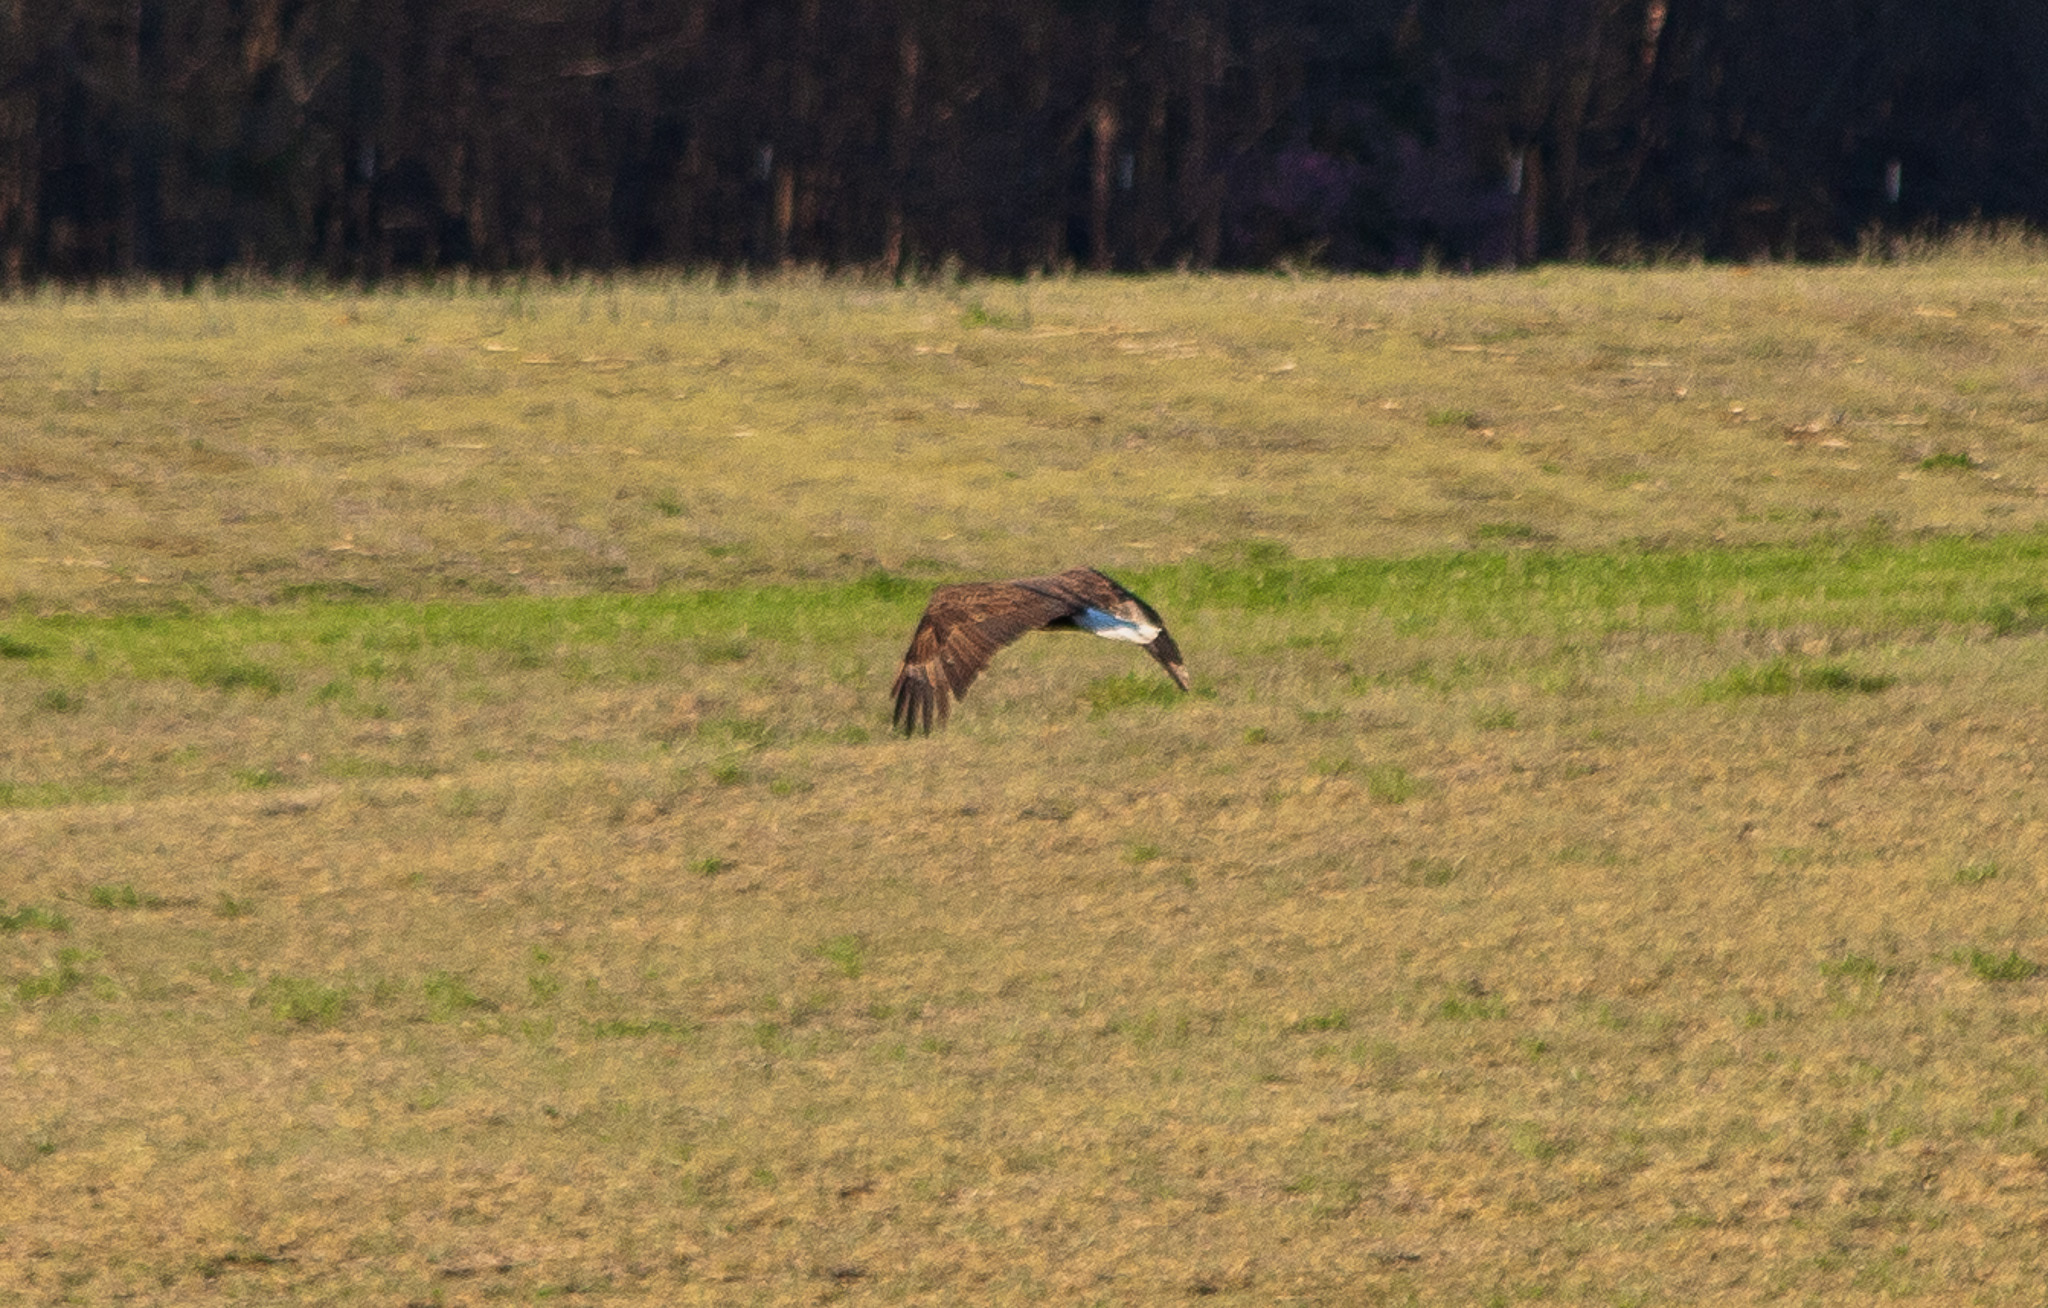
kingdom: Animalia
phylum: Chordata
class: Aves
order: Accipitriformes
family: Accipitridae
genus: Haliaeetus
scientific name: Haliaeetus leucocephalus
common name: Bald eagle
